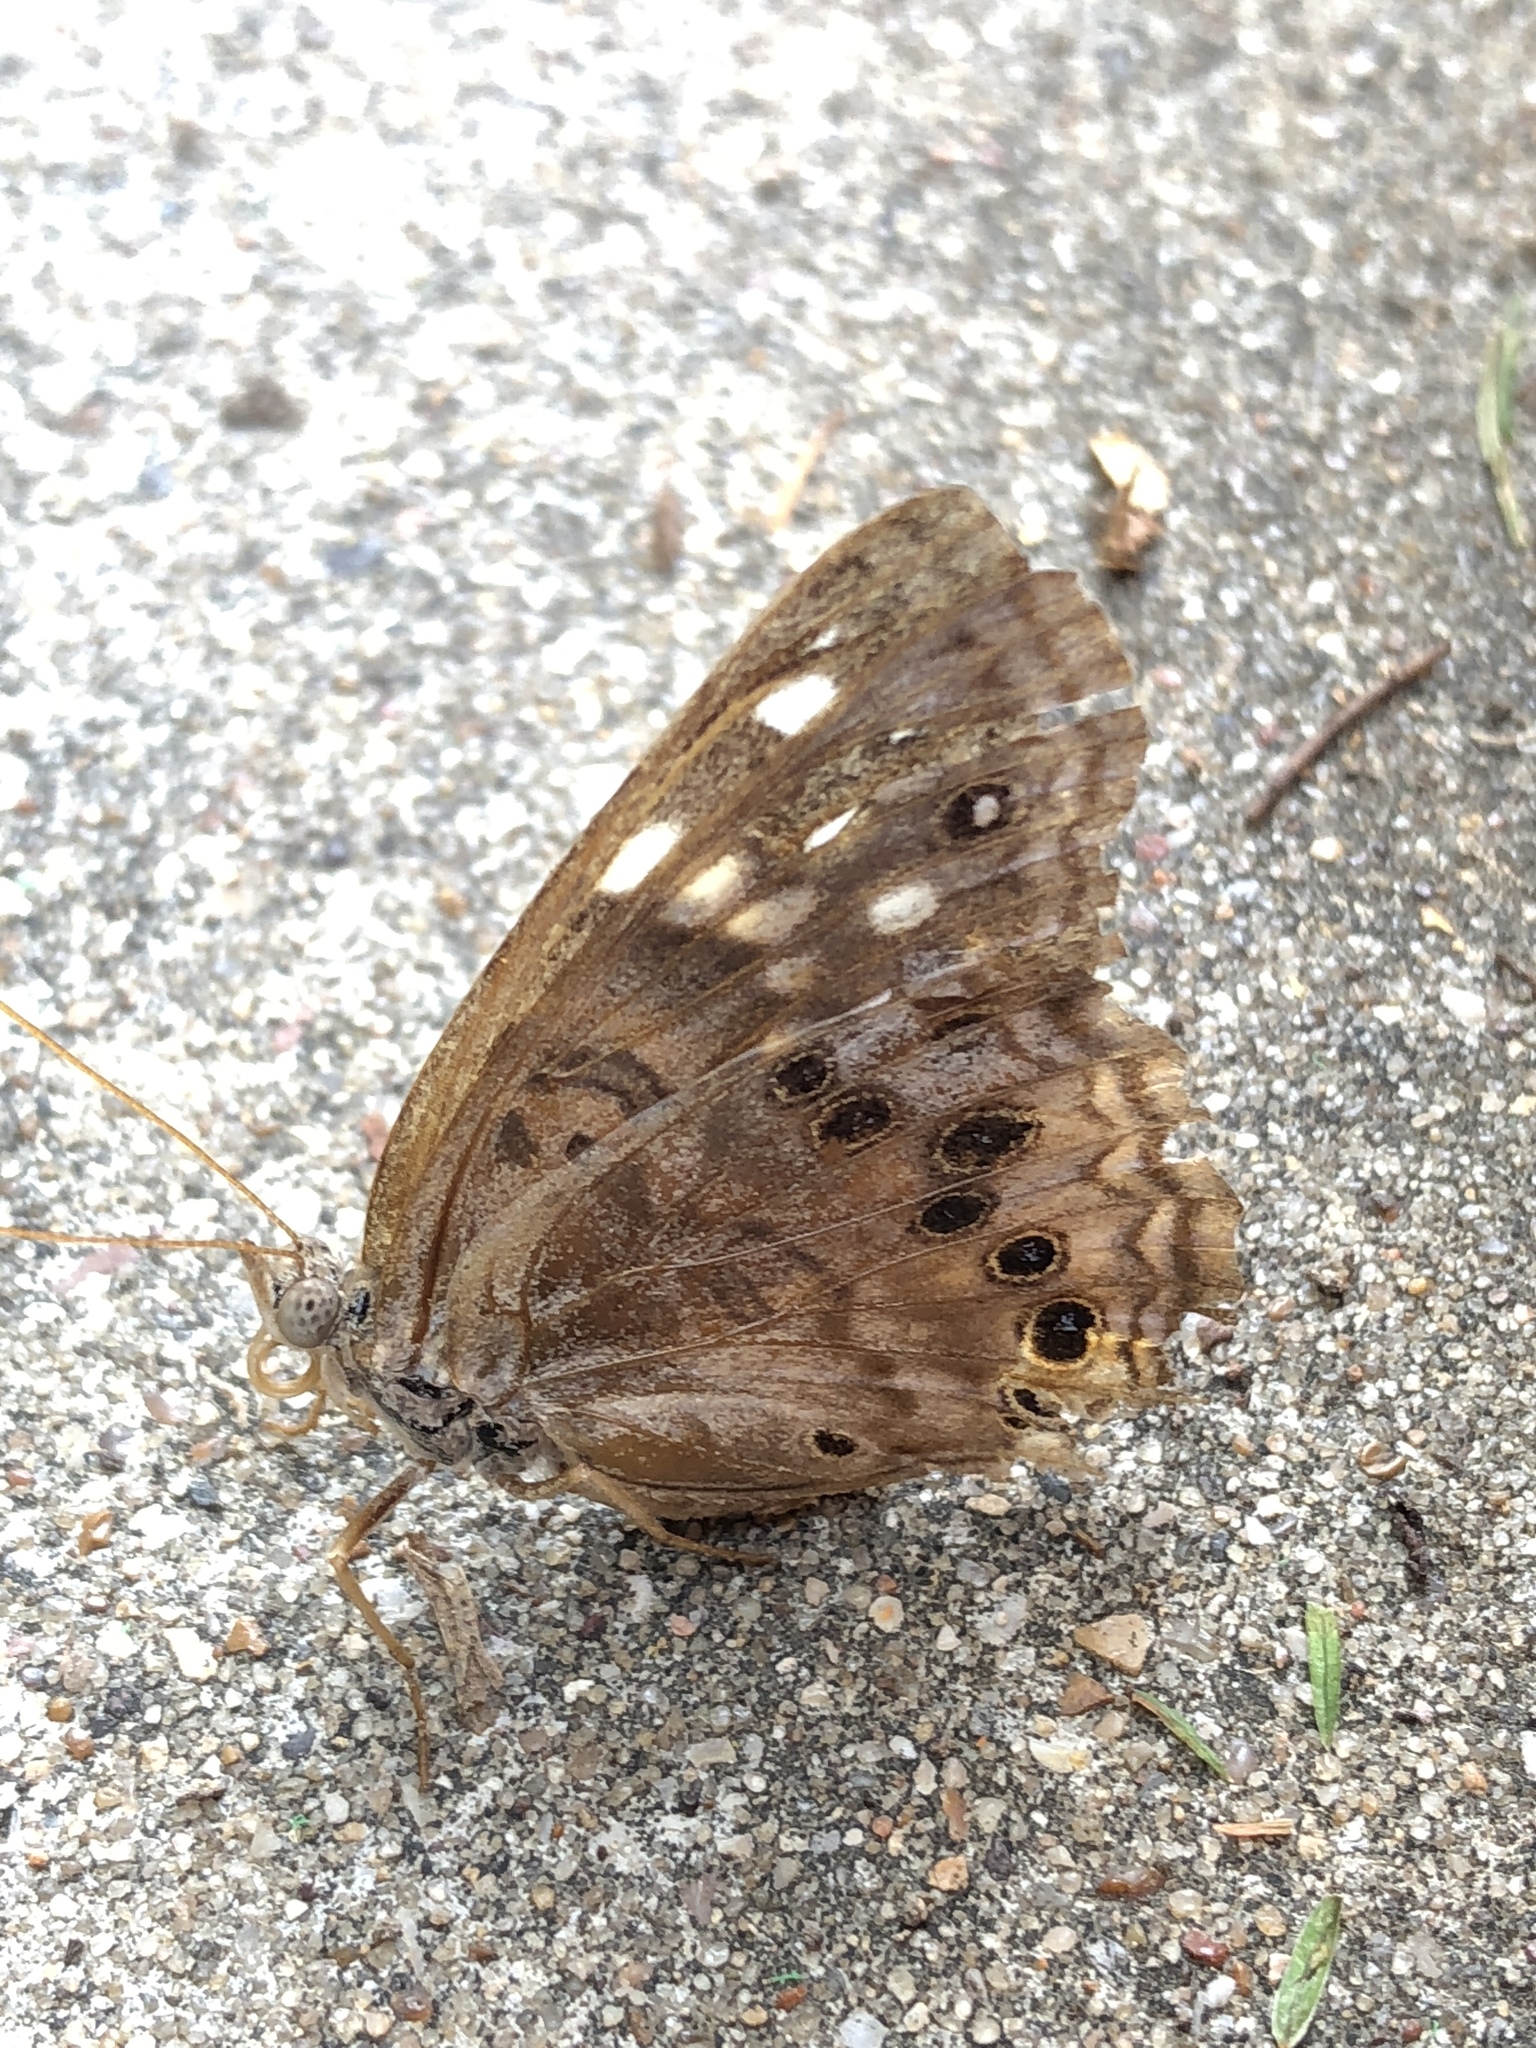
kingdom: Animalia
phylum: Arthropoda
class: Insecta
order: Lepidoptera
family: Nymphalidae
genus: Asterocampa
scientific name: Asterocampa celtis
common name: Hackberry emperor
